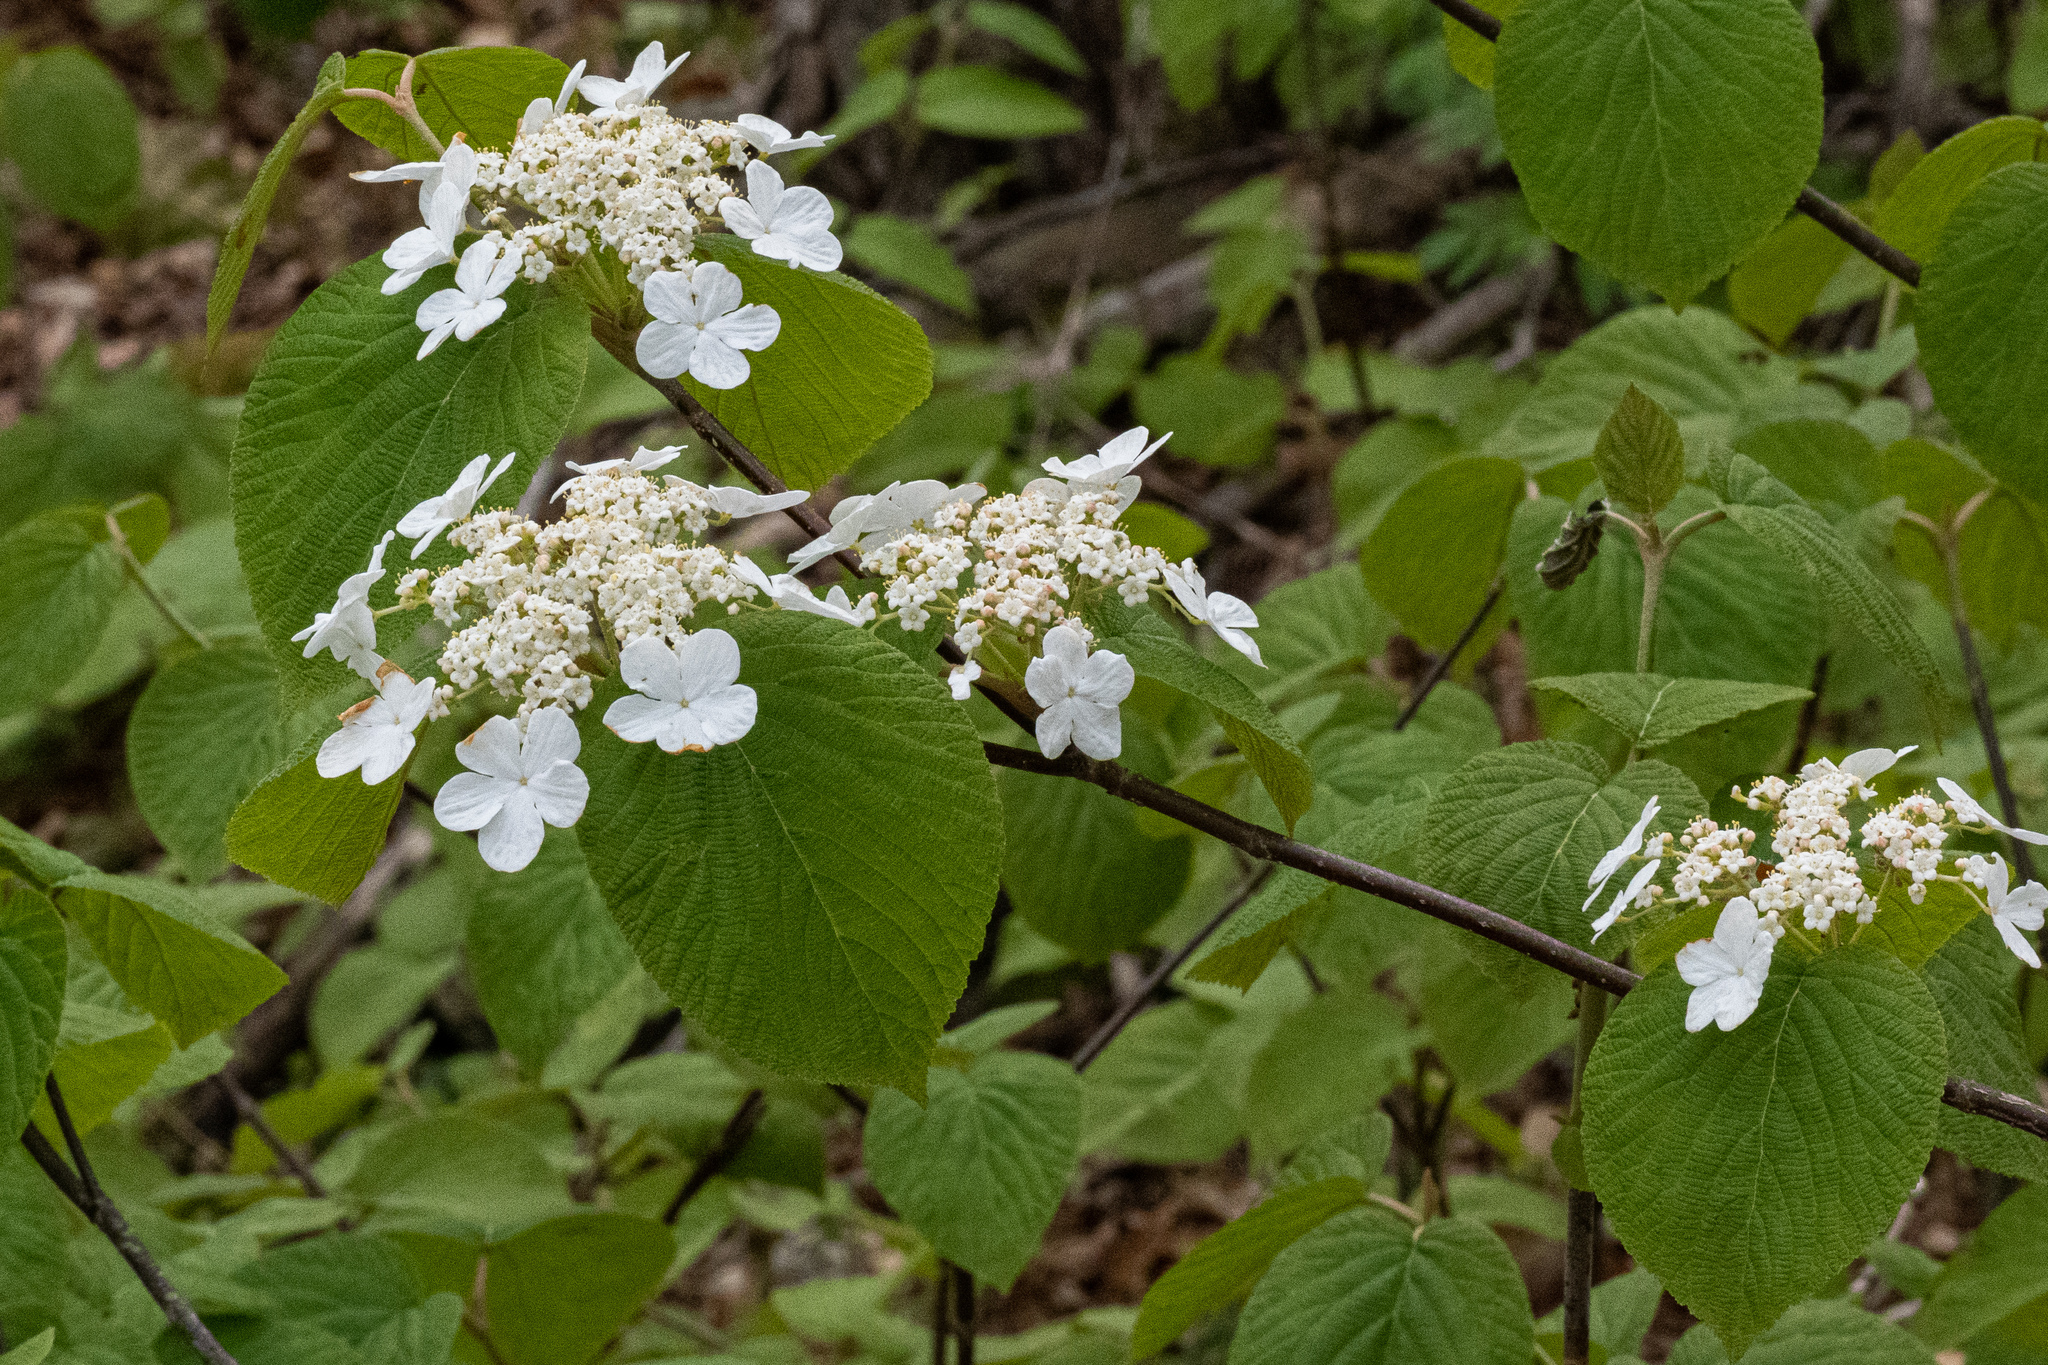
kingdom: Plantae
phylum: Tracheophyta
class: Magnoliopsida
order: Dipsacales
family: Viburnaceae
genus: Viburnum
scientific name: Viburnum lantanoides
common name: Hobblebush
